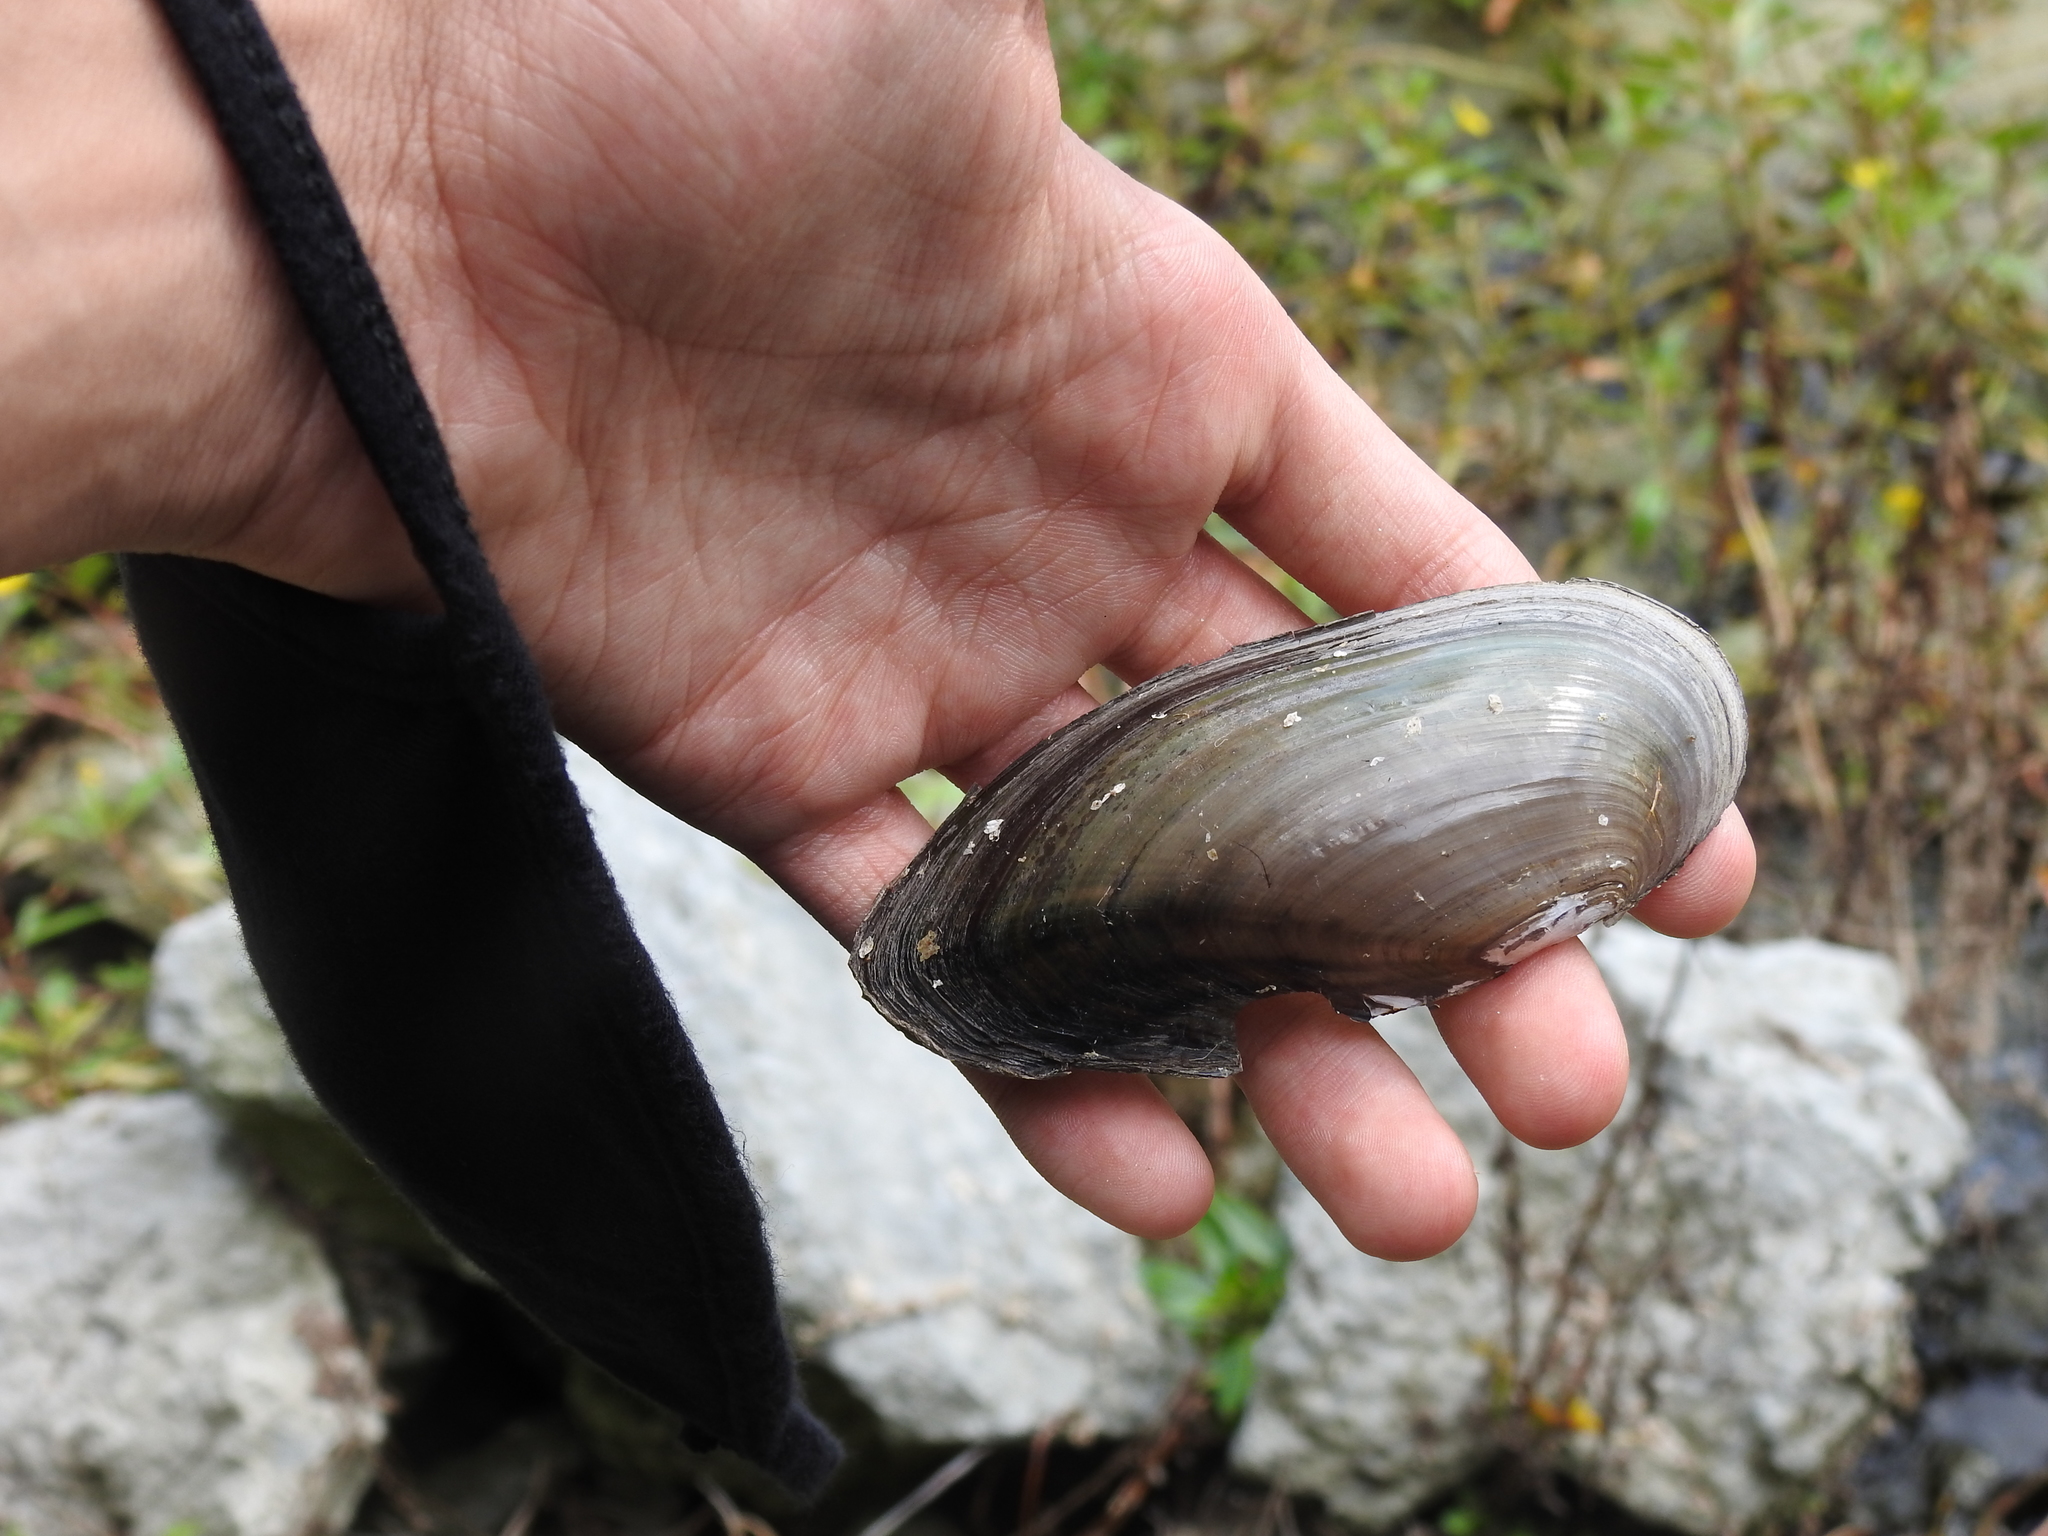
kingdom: Animalia
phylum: Mollusca
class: Bivalvia
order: Unionida
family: Unionidae
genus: Utterbackia
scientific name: Utterbackia imbecillis
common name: Paper pondshell
